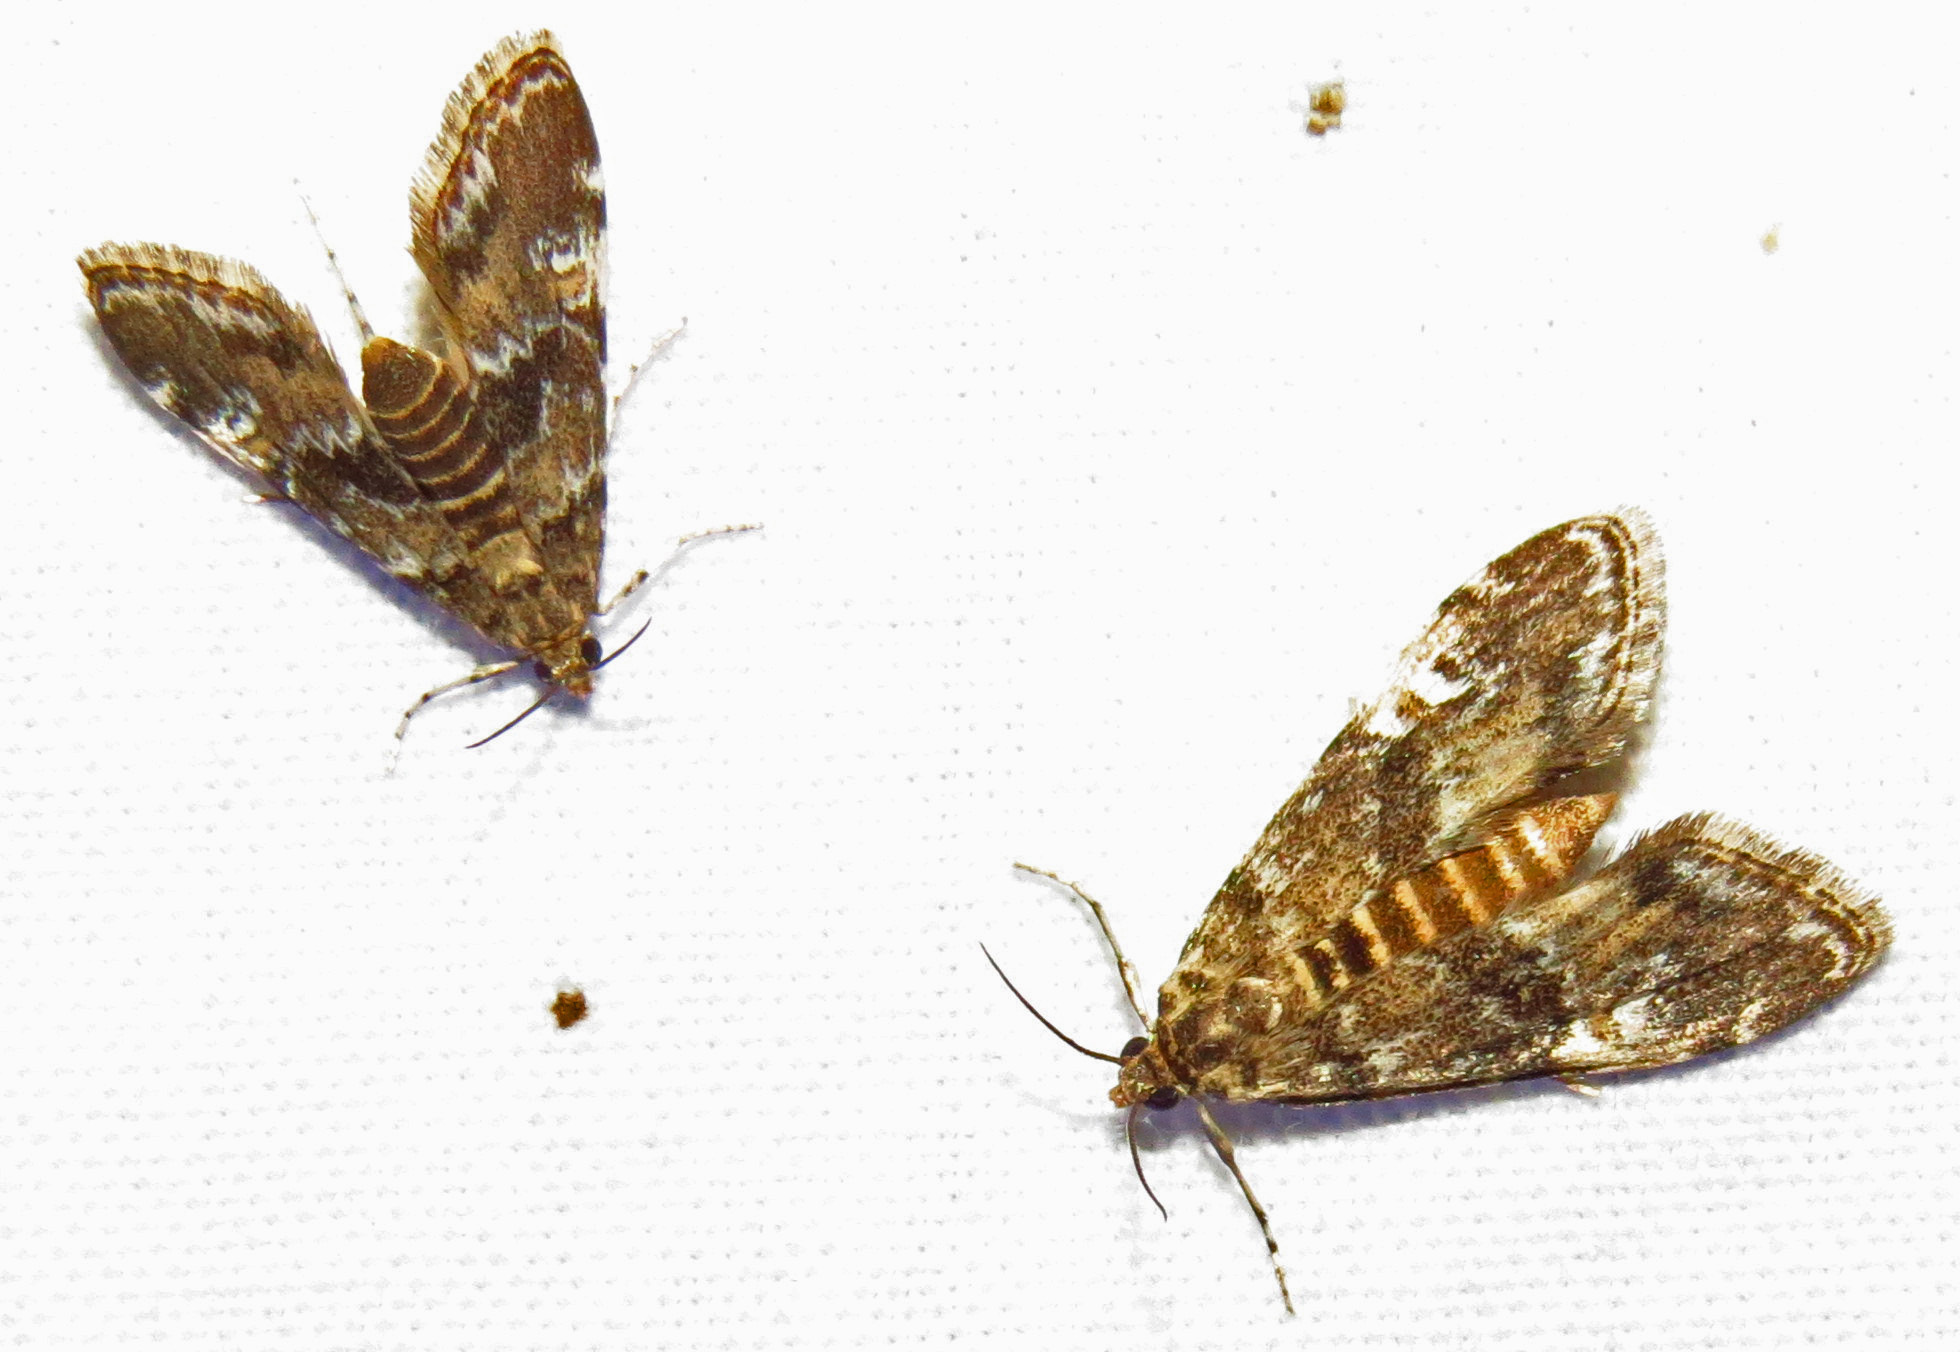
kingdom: Animalia
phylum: Arthropoda
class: Insecta
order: Lepidoptera
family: Crambidae
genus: Elophila
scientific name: Elophila obliteralis
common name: Waterlily leafcutter moth
